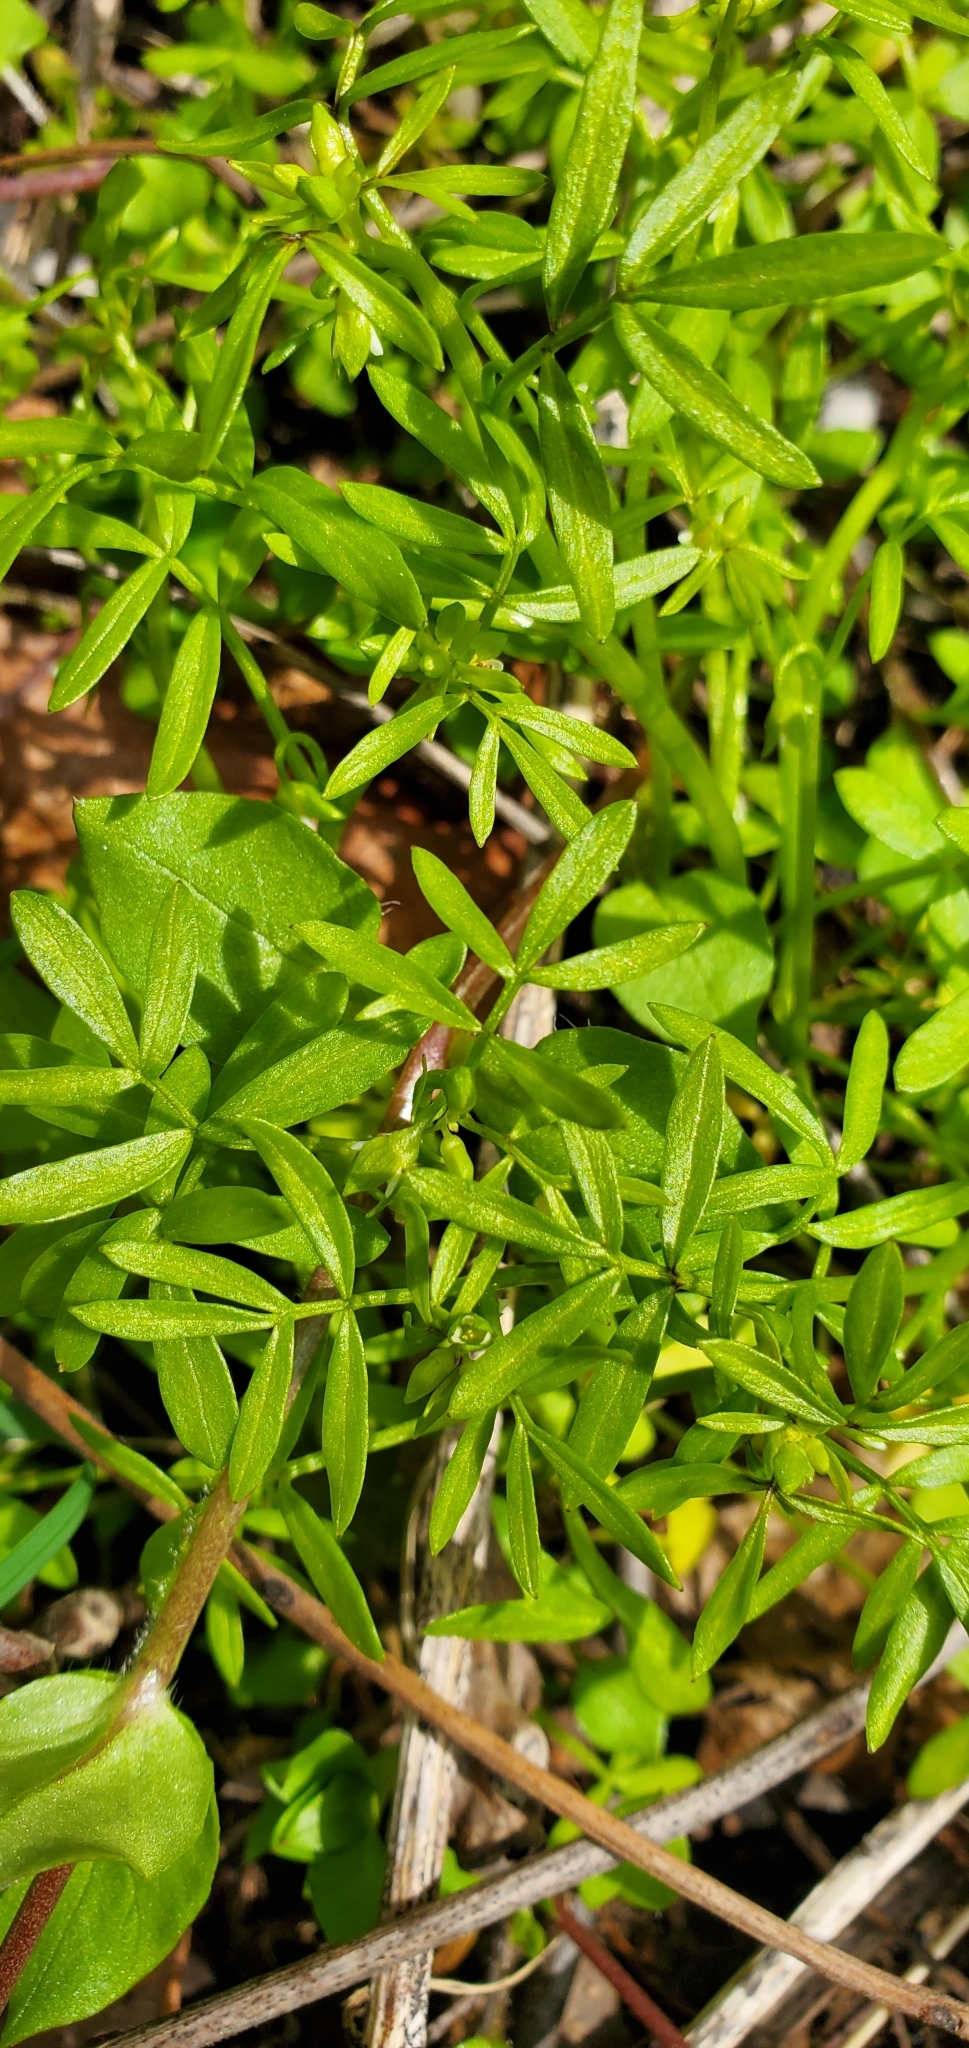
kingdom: Plantae
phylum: Tracheophyta
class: Magnoliopsida
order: Brassicales
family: Limnanthaceae
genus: Floerkea
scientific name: Floerkea proserpinacoides
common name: False mermaid
